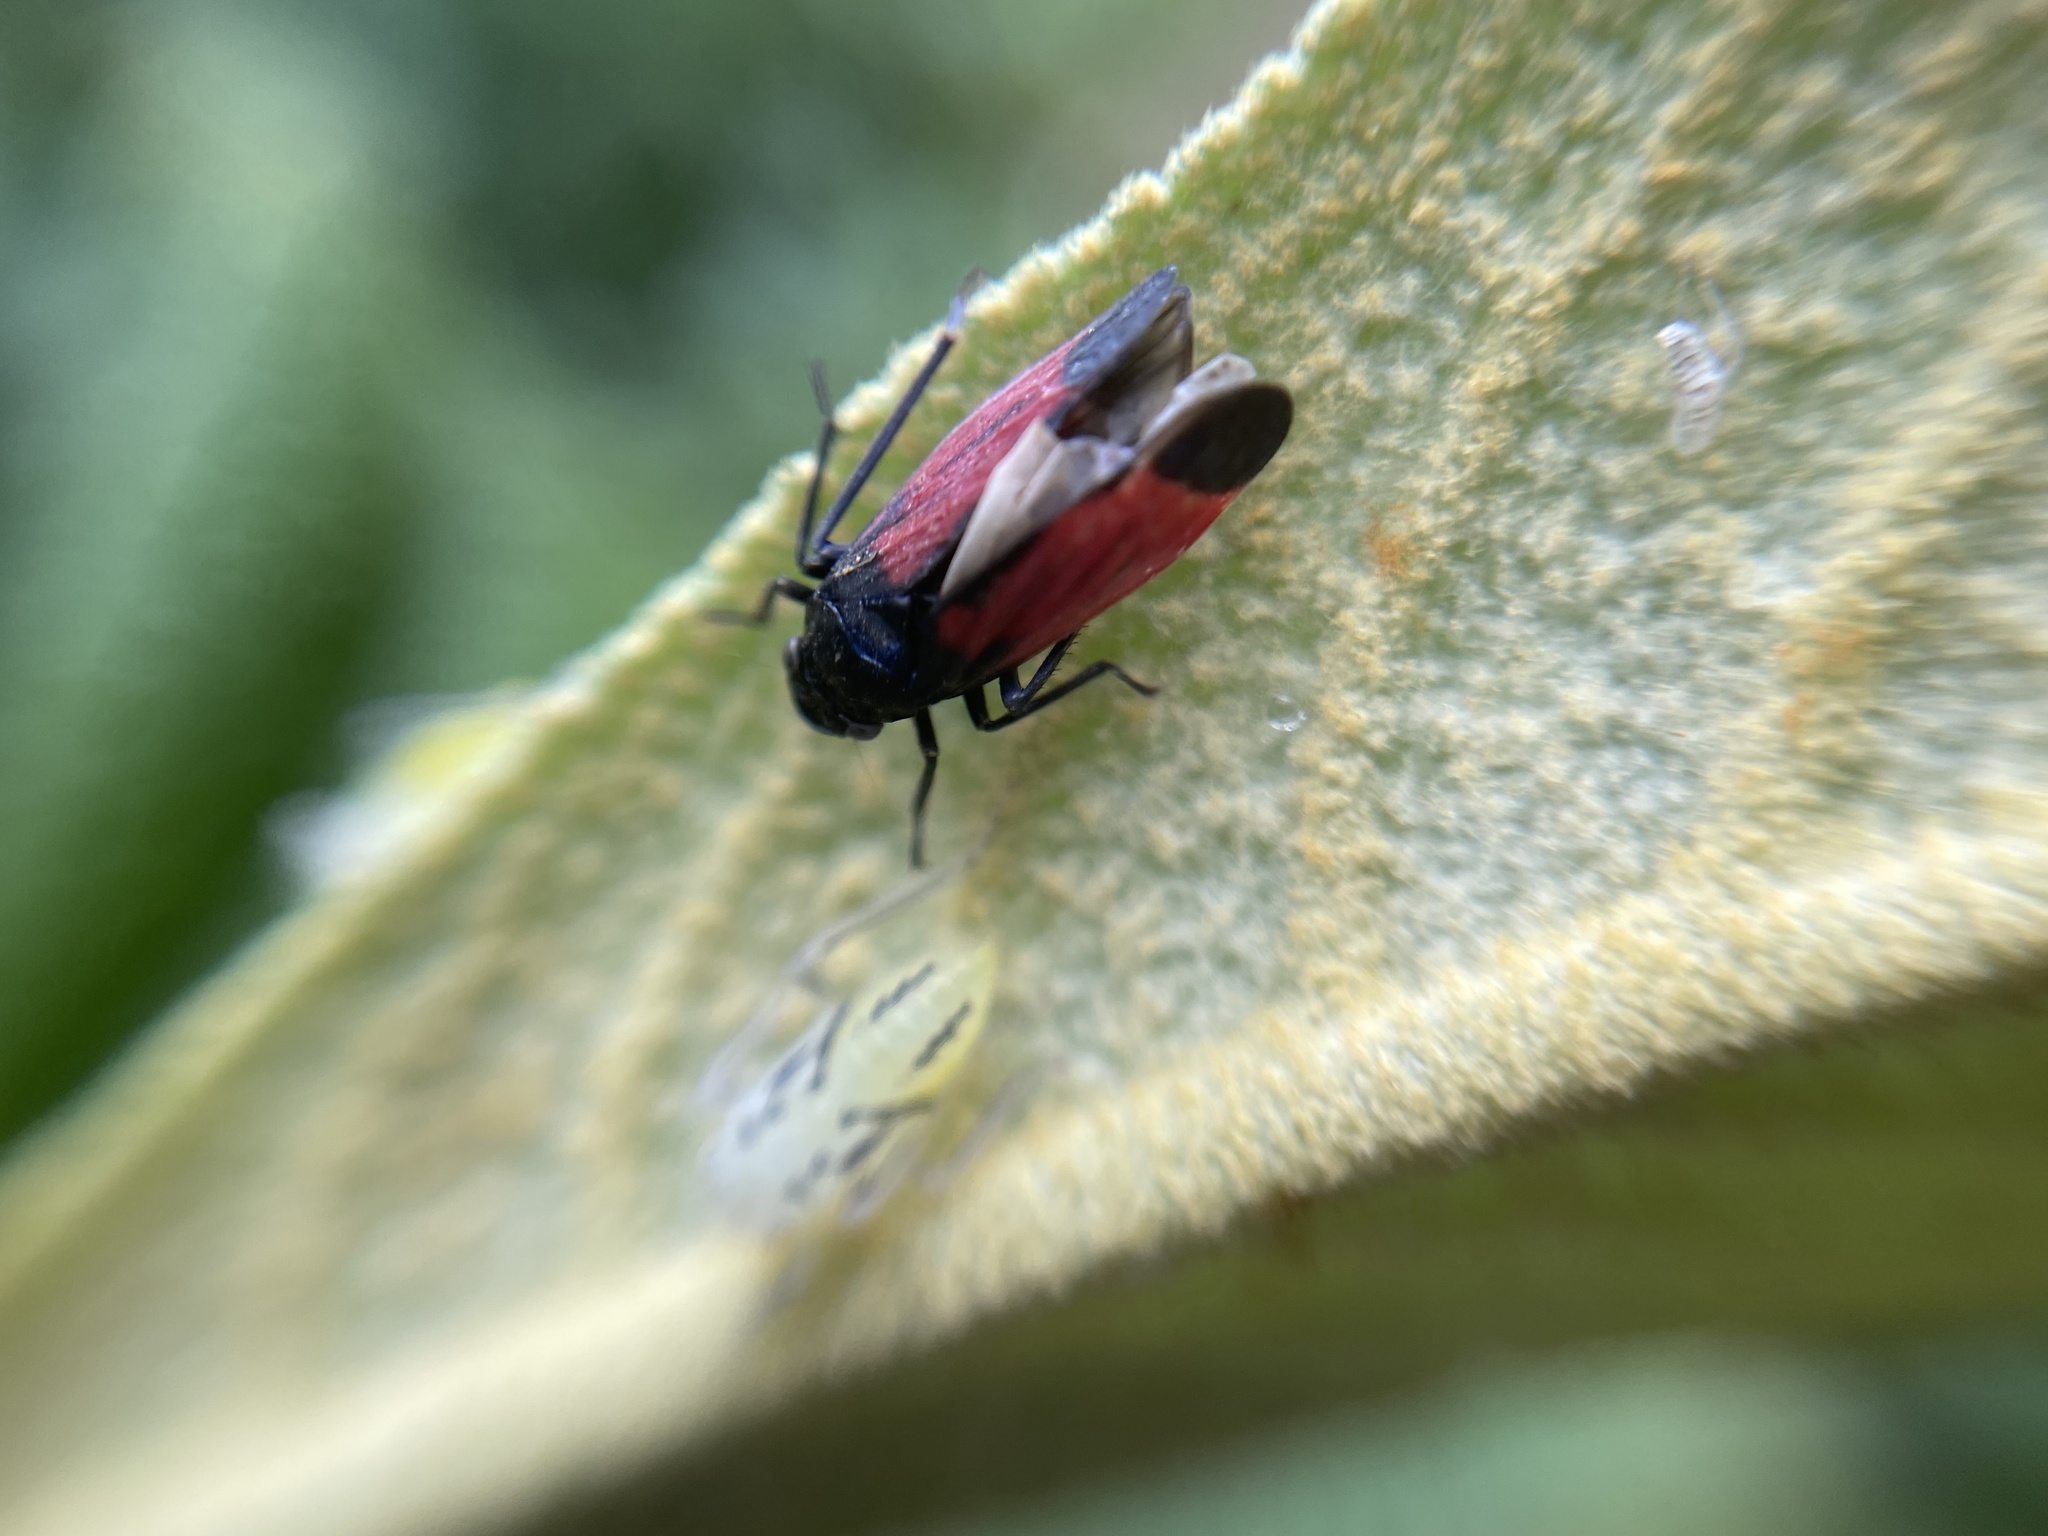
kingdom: Animalia
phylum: Arthropoda
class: Insecta
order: Hemiptera
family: Cicadellidae
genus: Cardioscarta
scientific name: Cardioscarta flavifrons
